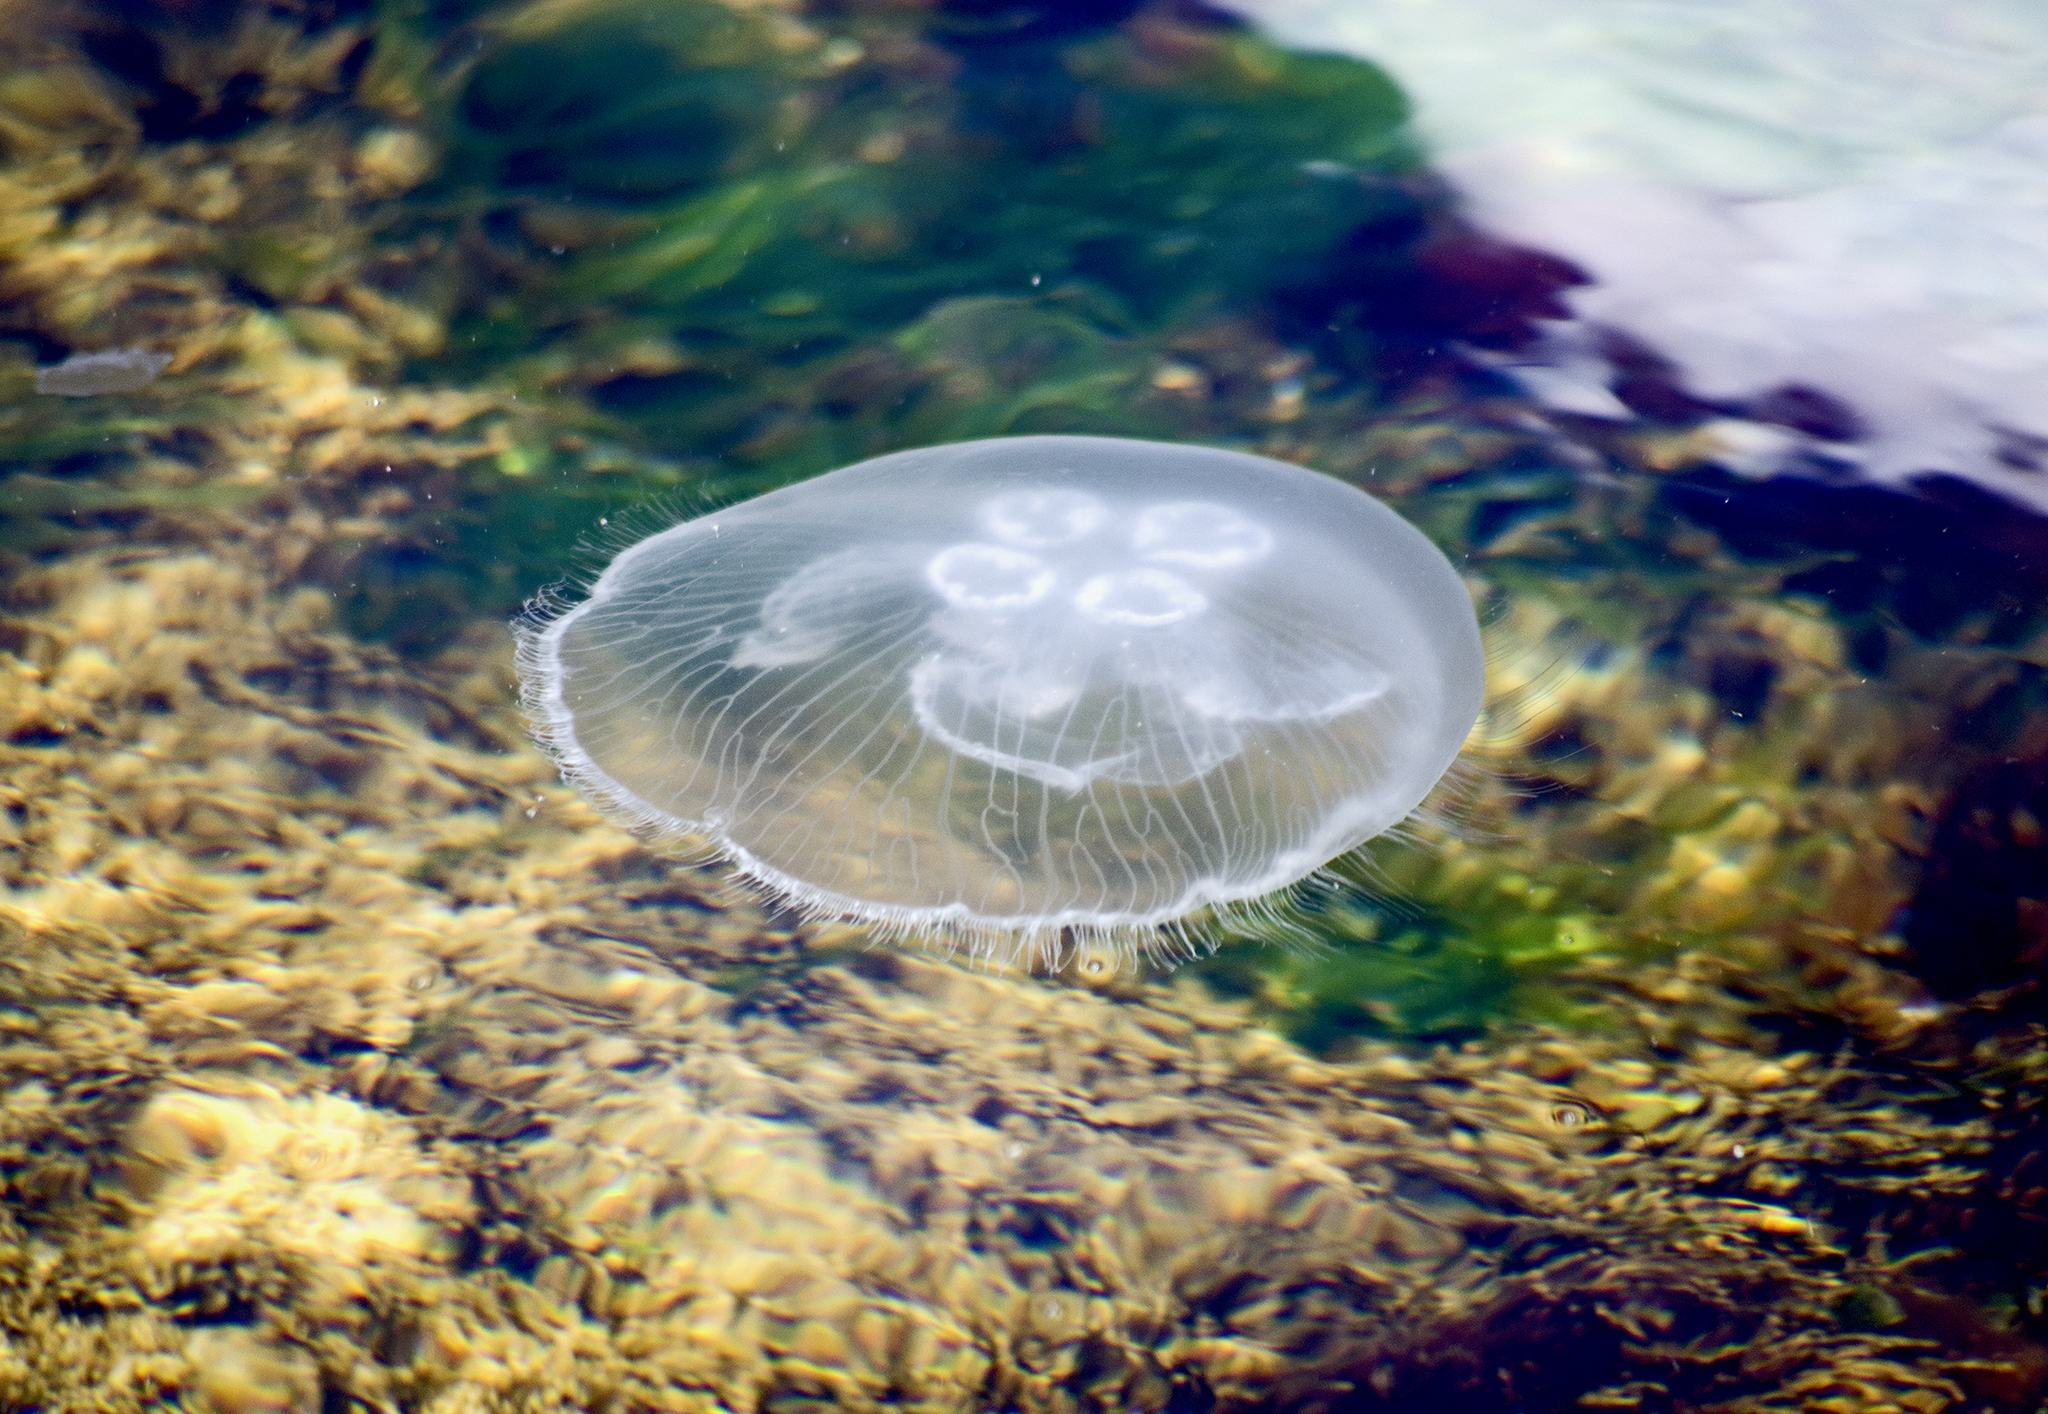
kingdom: Animalia
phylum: Cnidaria
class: Scyphozoa
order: Semaeostomeae
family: Ulmaridae
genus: Aurelia
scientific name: Aurelia aurita
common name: Moon jellyfish
